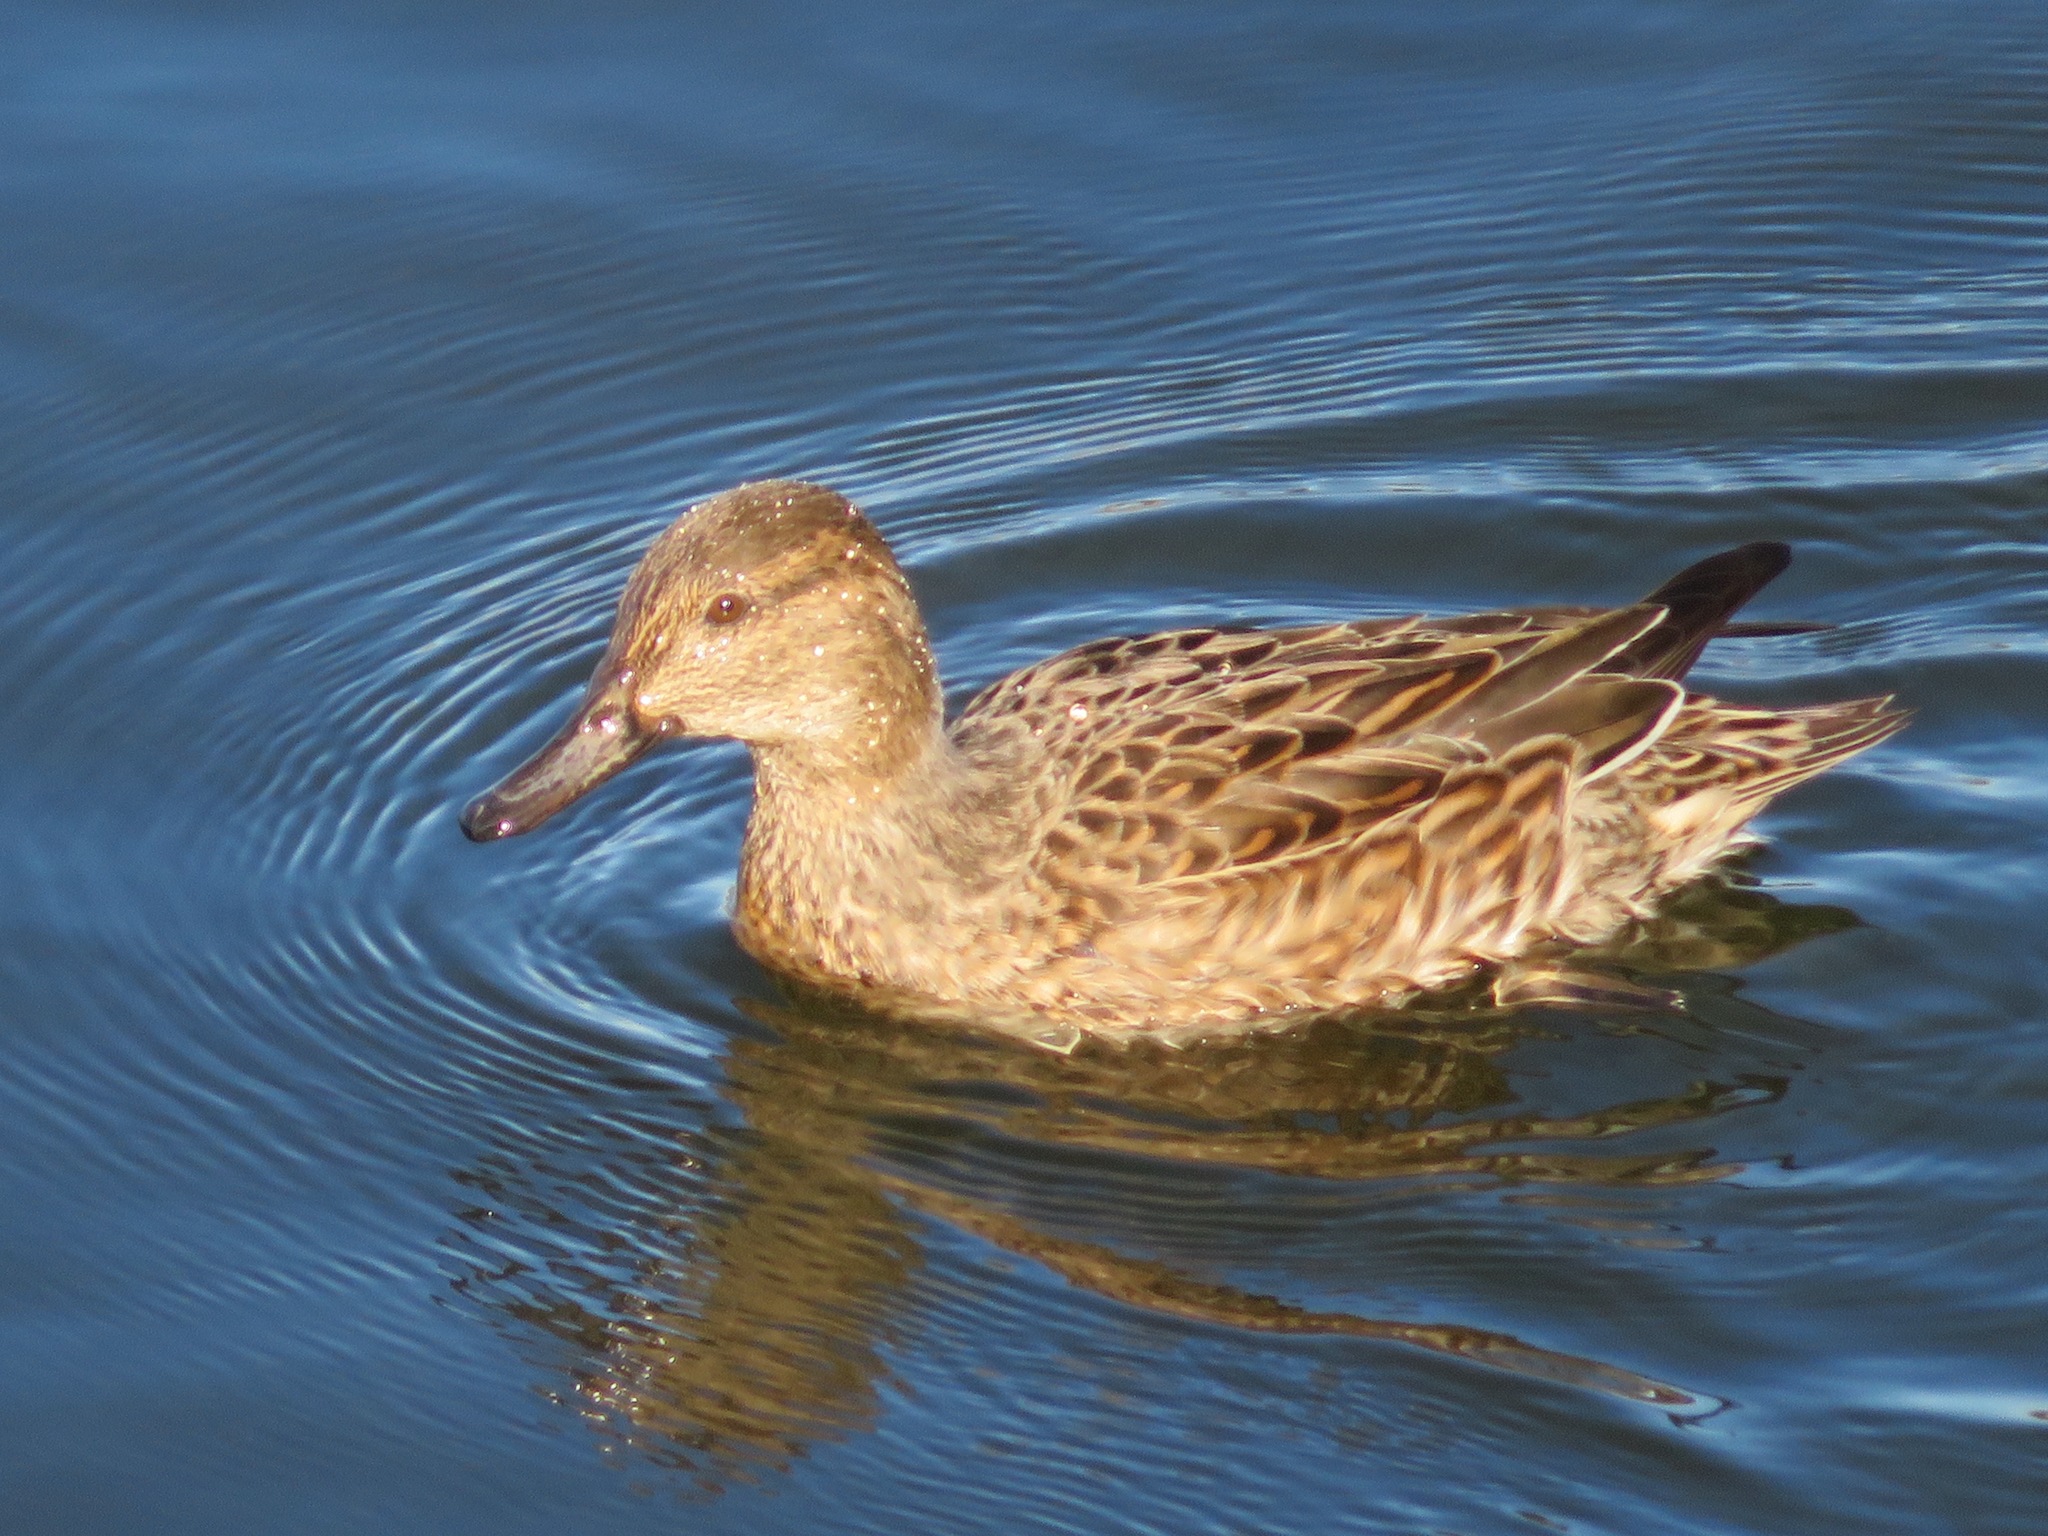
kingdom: Animalia
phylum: Chordata
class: Aves
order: Anseriformes
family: Anatidae
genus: Anas
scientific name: Anas crecca
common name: Eurasian teal
